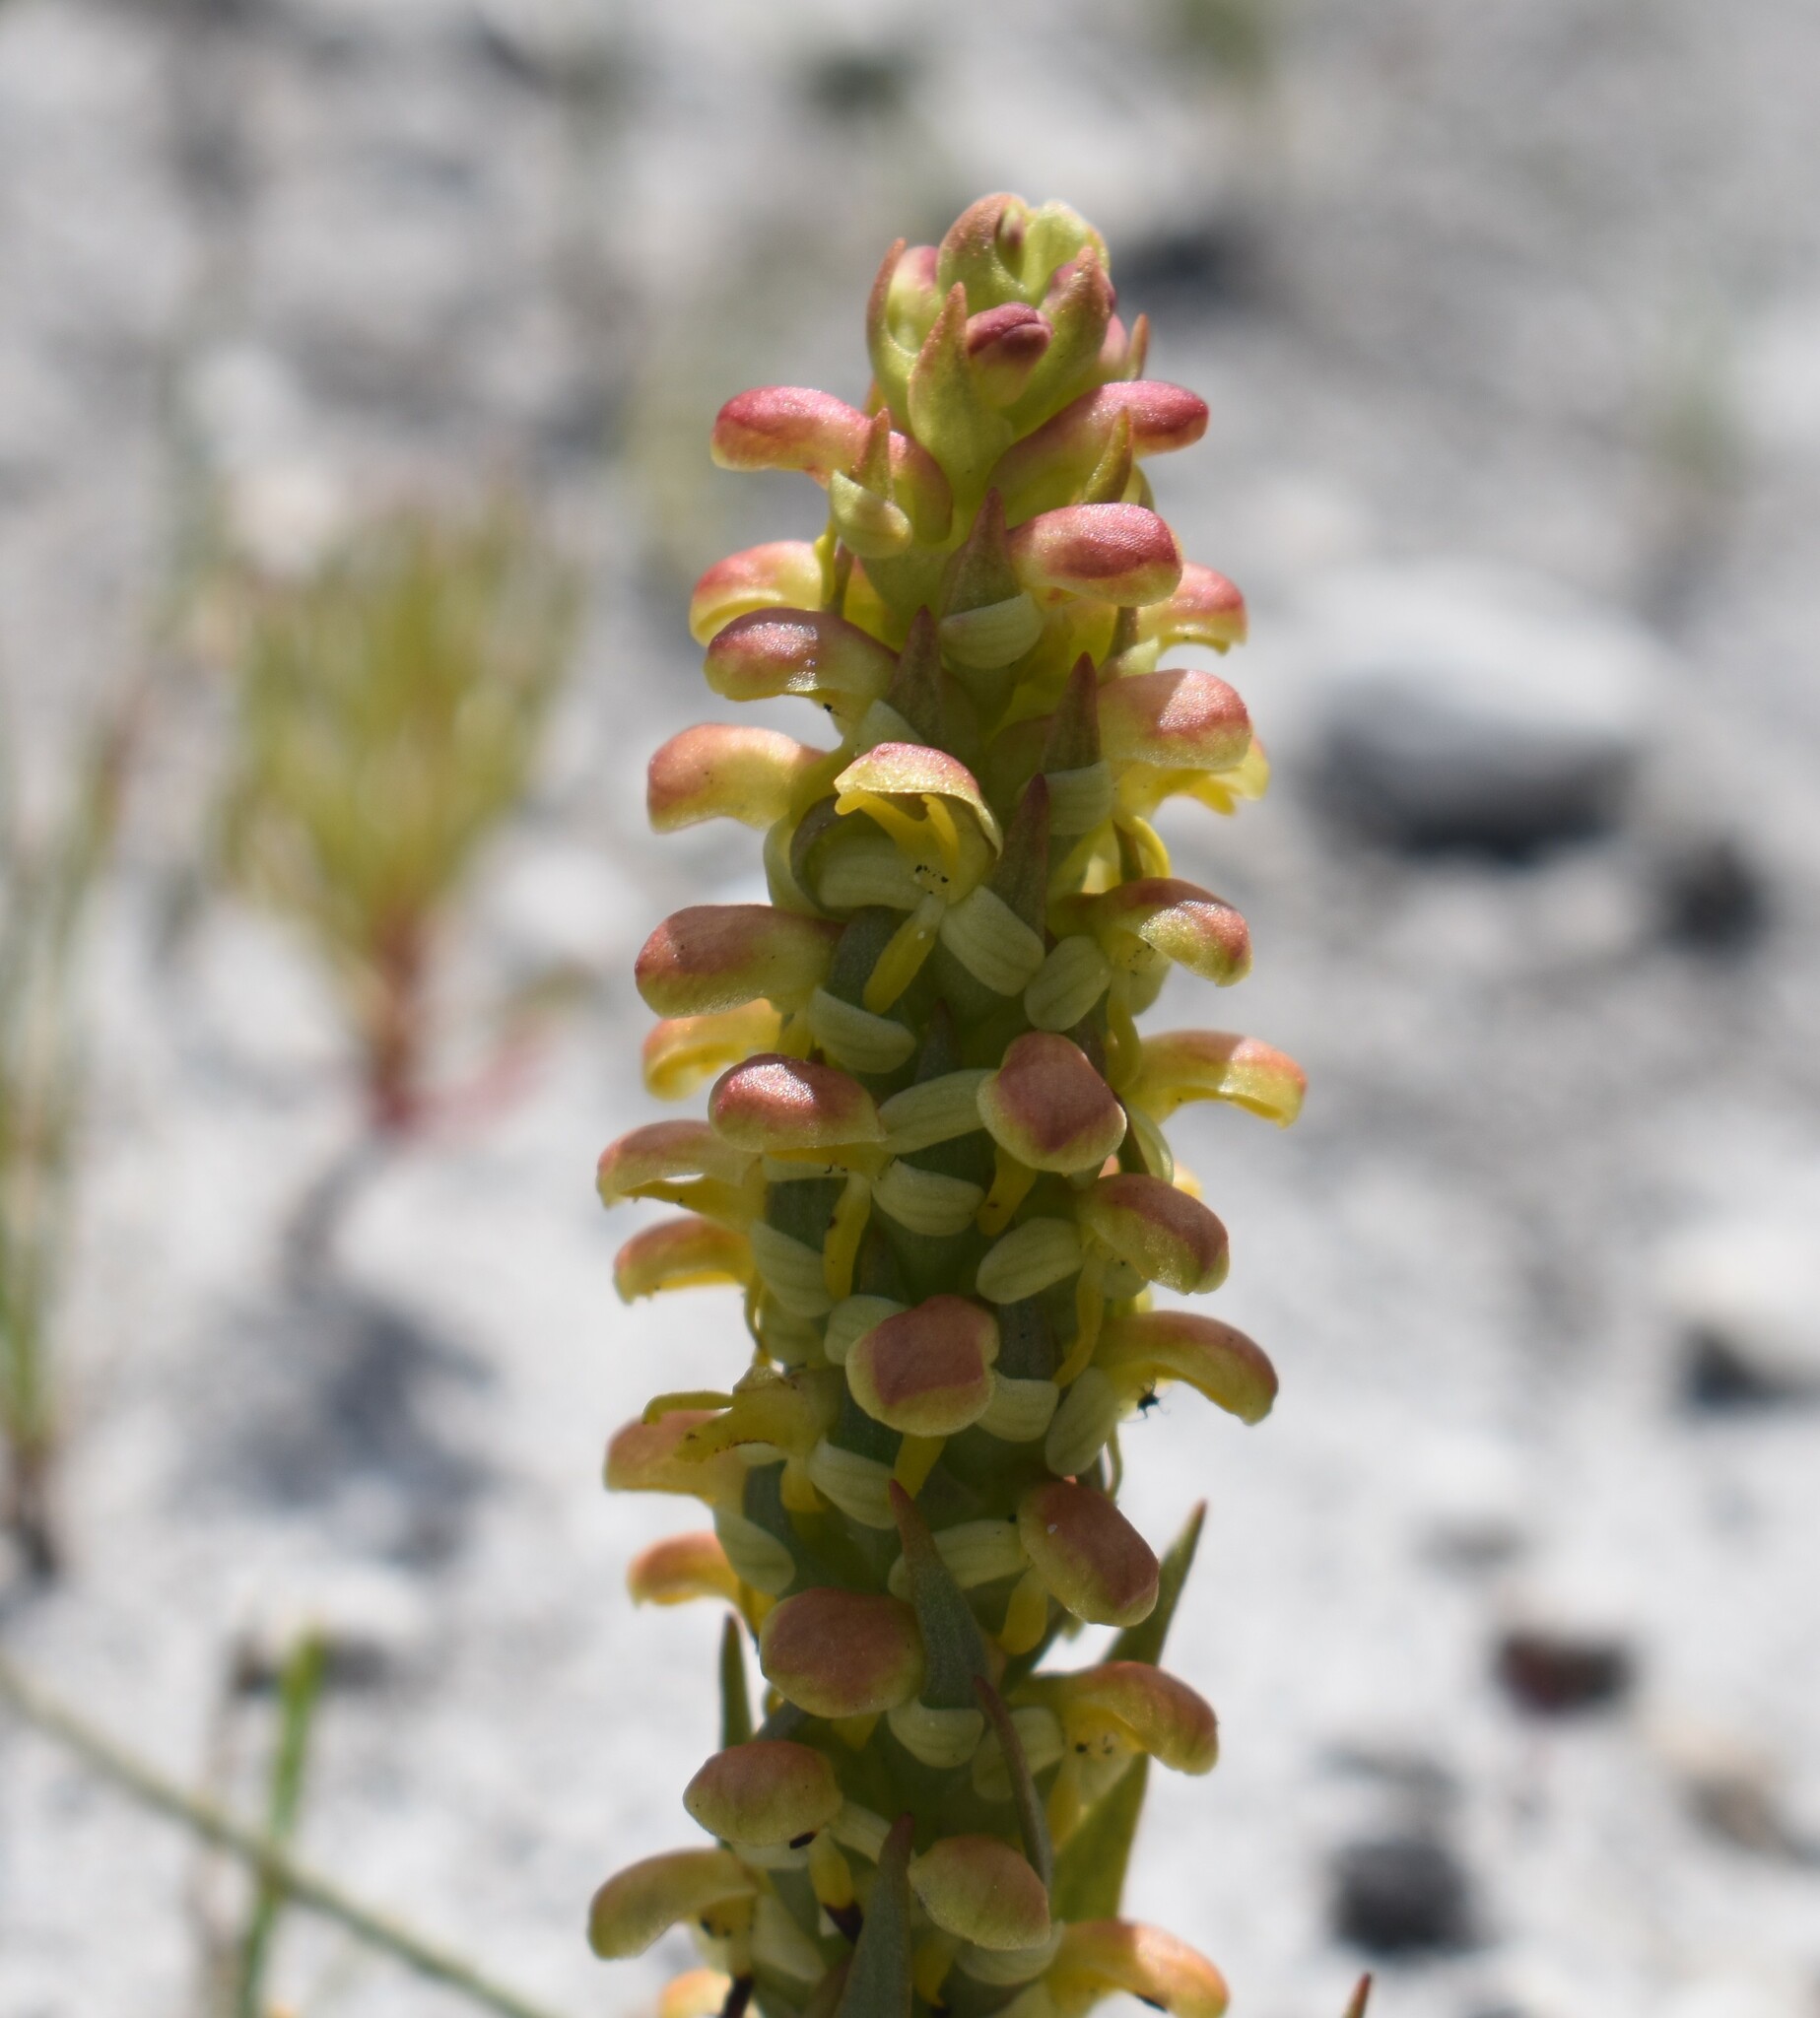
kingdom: Plantae
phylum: Tracheophyta
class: Liliopsida
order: Asparagales
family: Orchidaceae
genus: Disa
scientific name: Disa pygmaea
